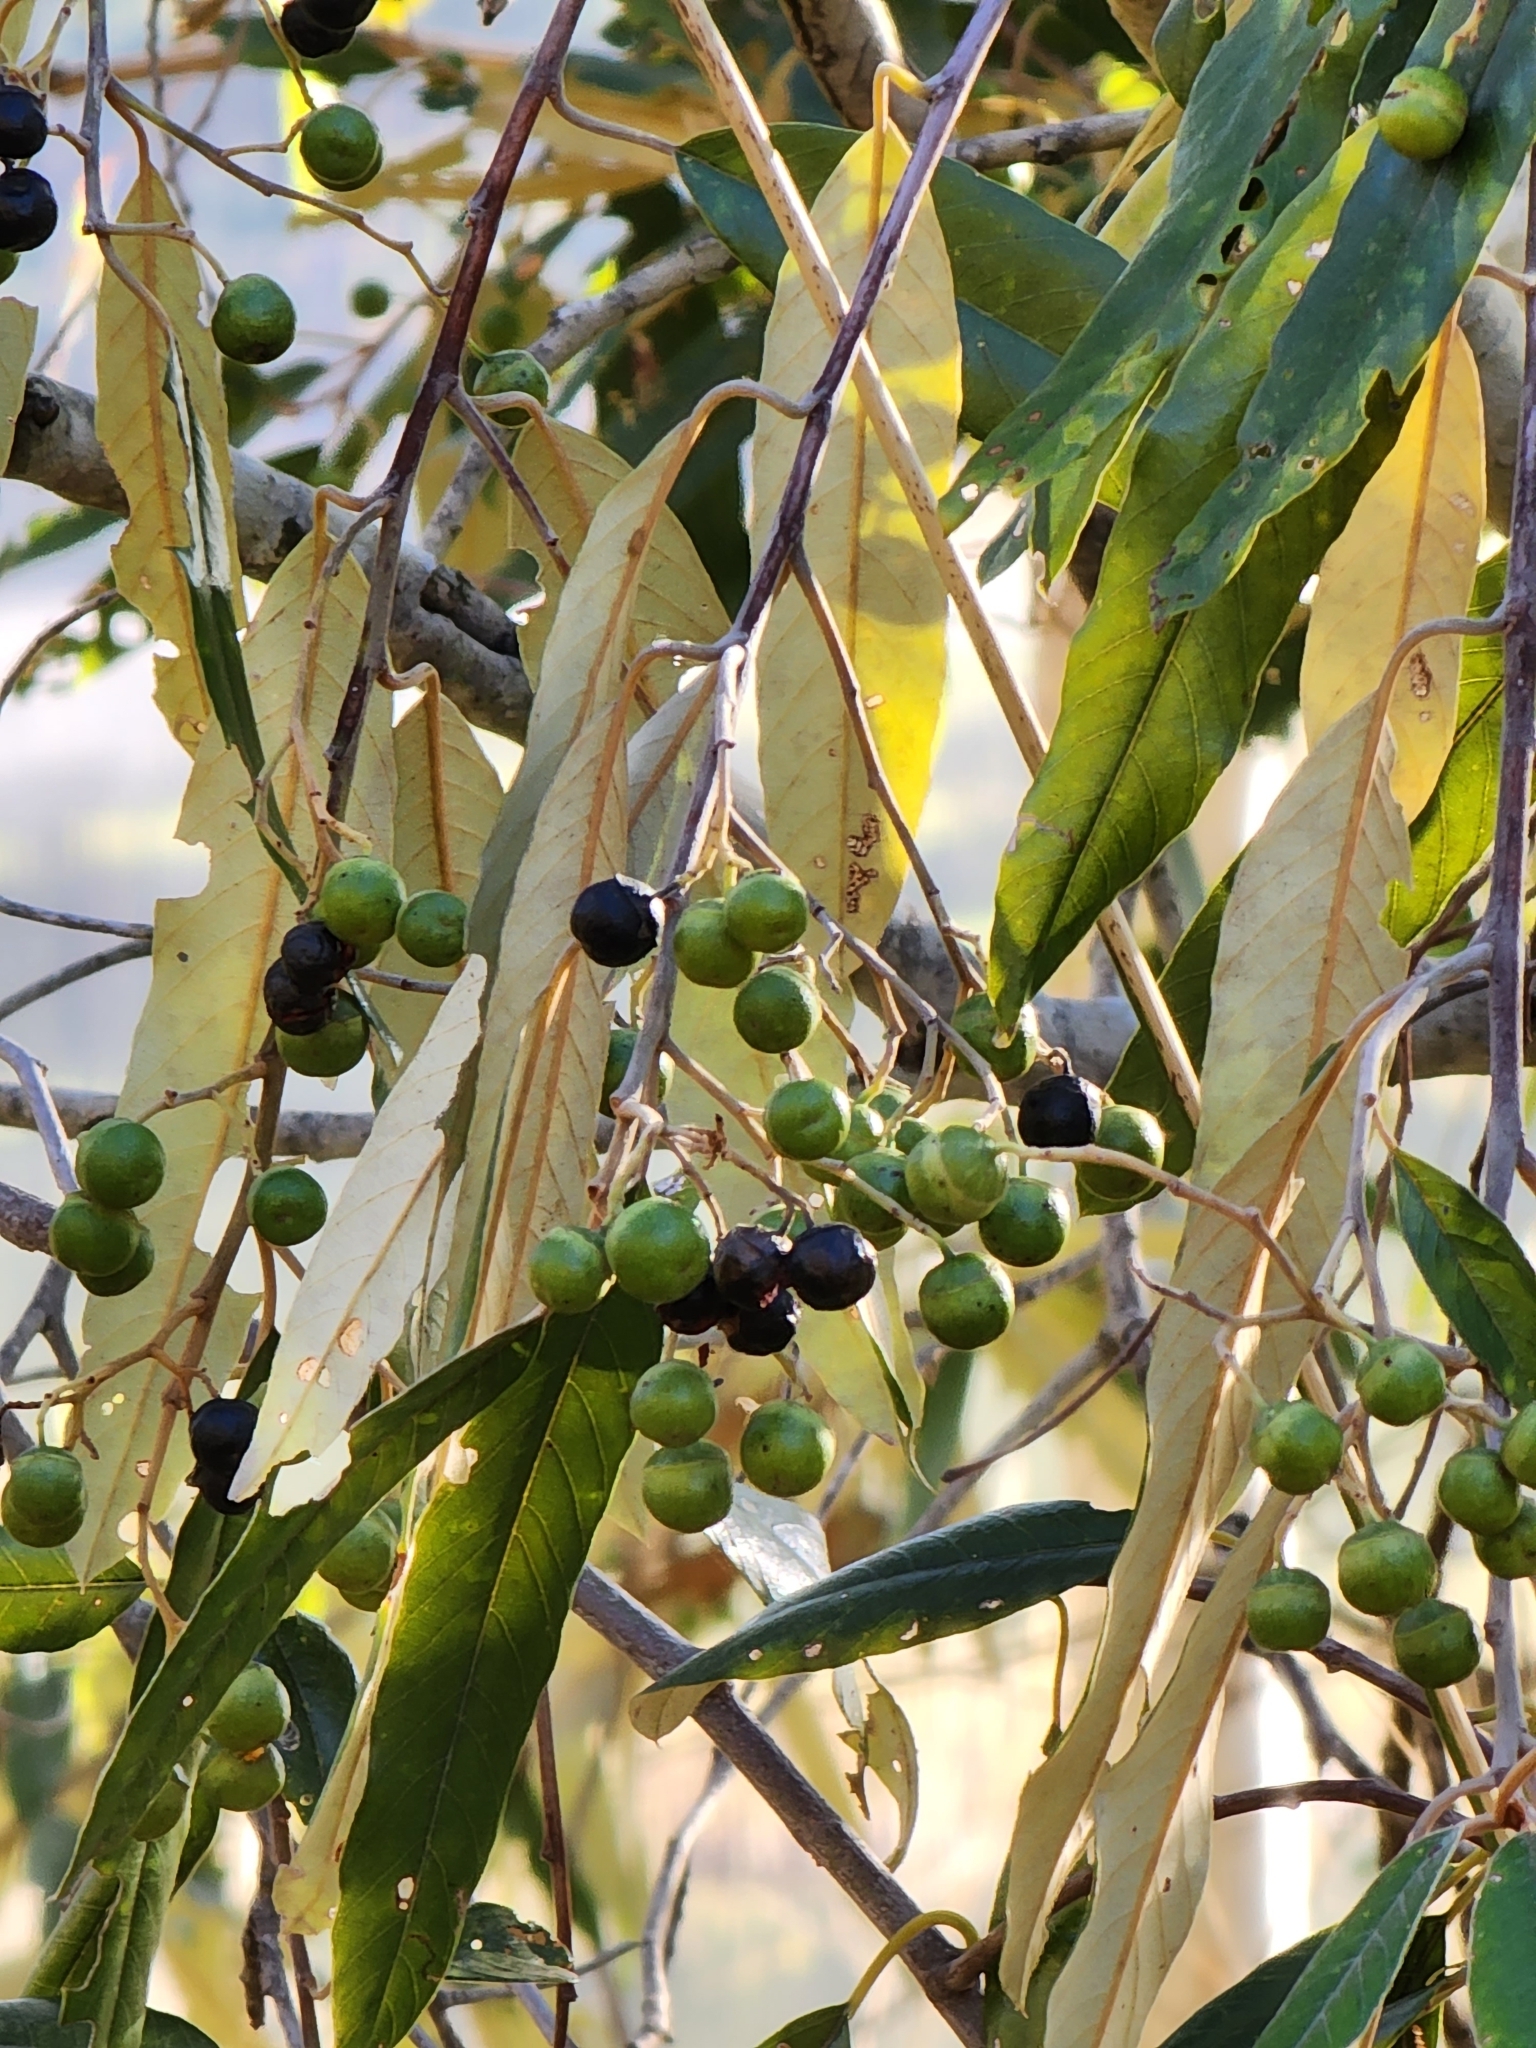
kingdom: Plantae
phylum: Tracheophyta
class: Magnoliopsida
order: Rosales
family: Rhamnaceae
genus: Alphitonia
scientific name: Alphitonia excelsa
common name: Red ash
